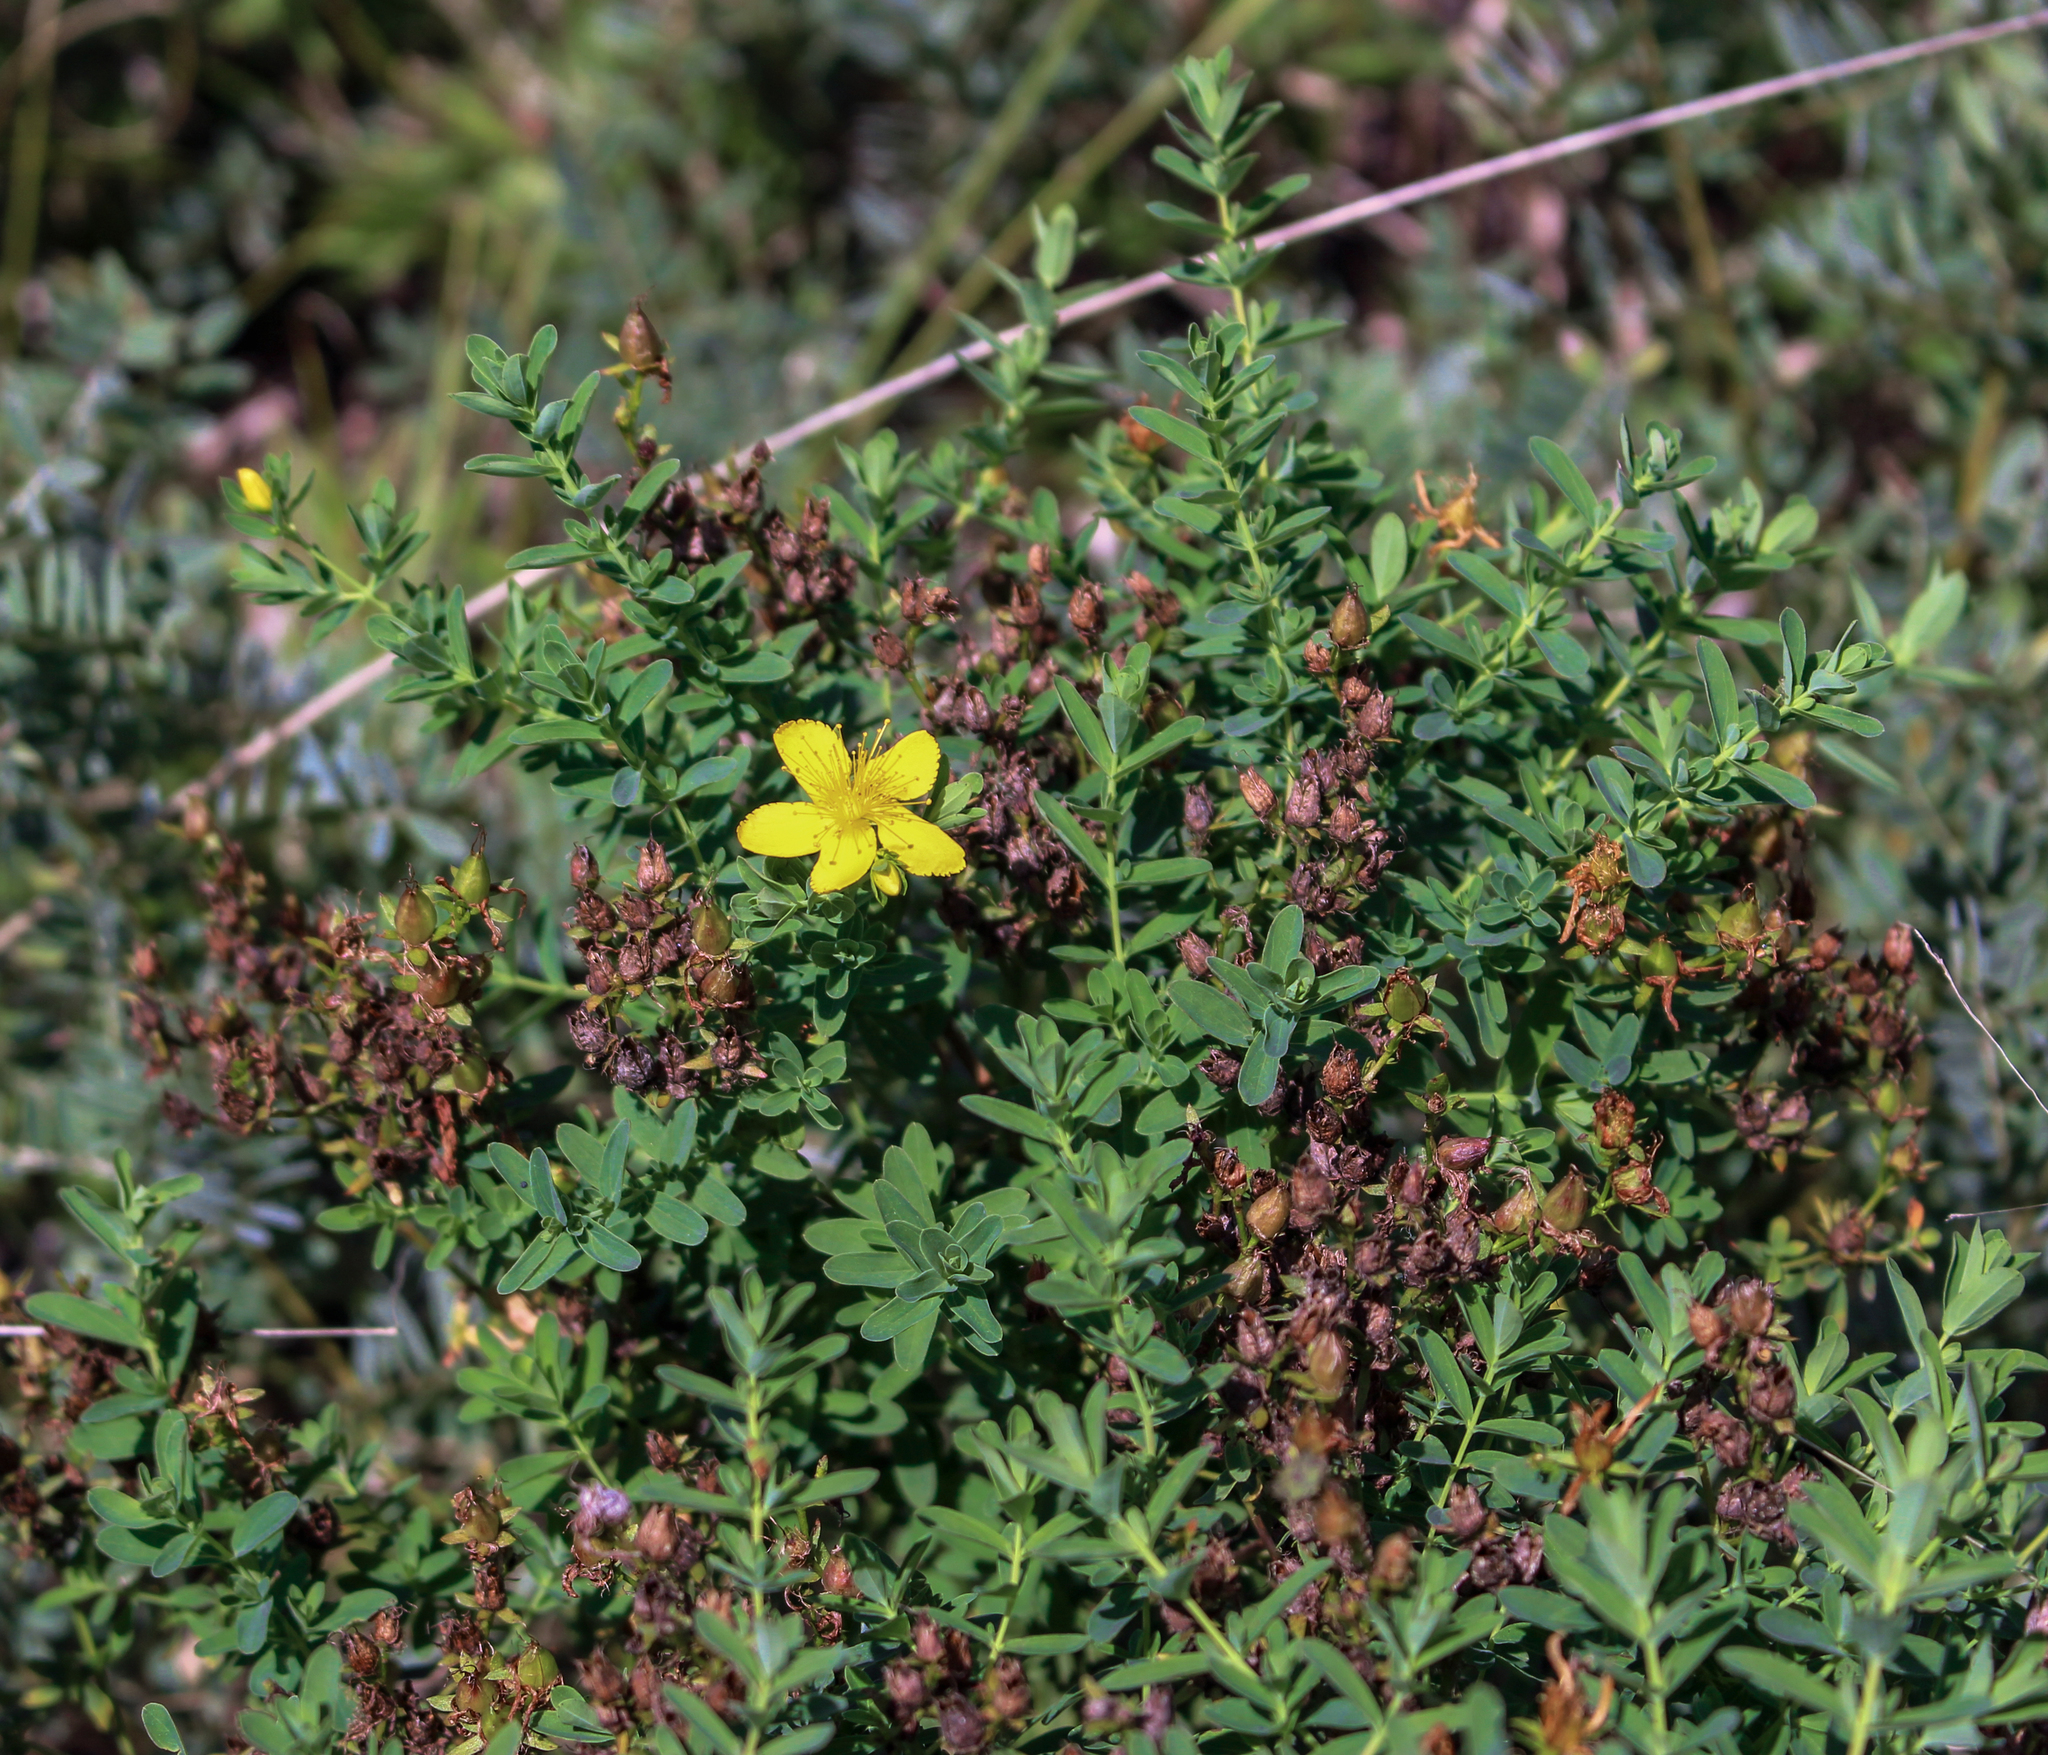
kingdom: Plantae
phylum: Tracheophyta
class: Magnoliopsida
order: Malpighiales
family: Hypericaceae
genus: Hypericum
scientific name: Hypericum perforatum
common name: Common st. johnswort
